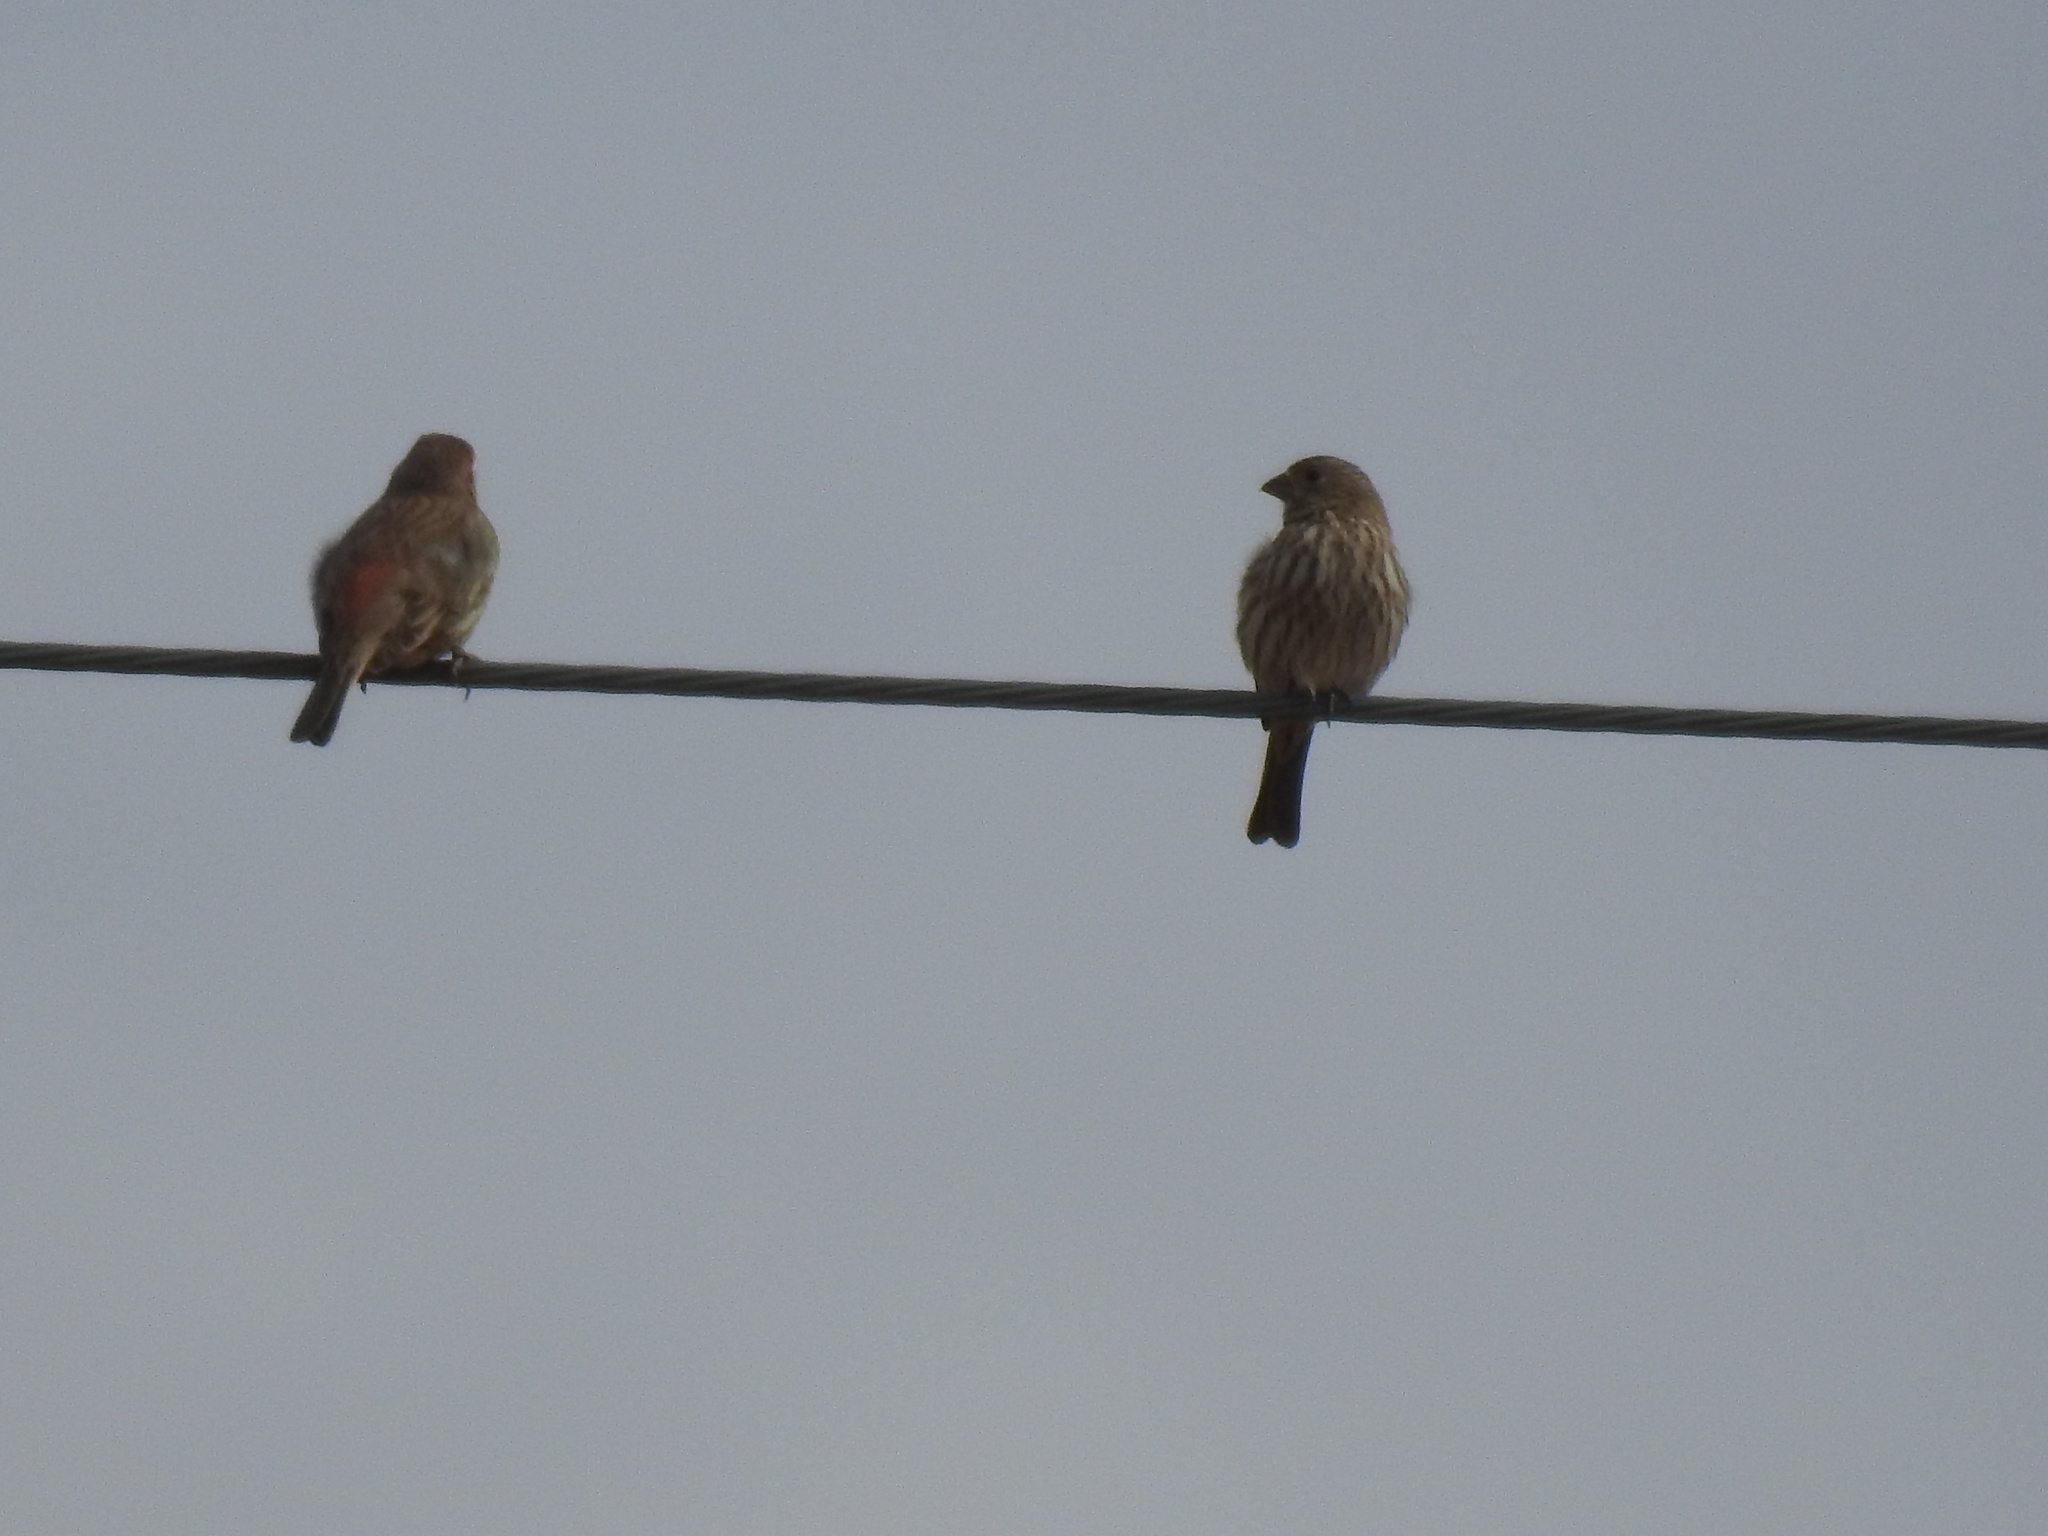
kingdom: Animalia
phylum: Chordata
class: Aves
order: Passeriformes
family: Fringillidae
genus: Haemorhous
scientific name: Haemorhous mexicanus
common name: House finch
